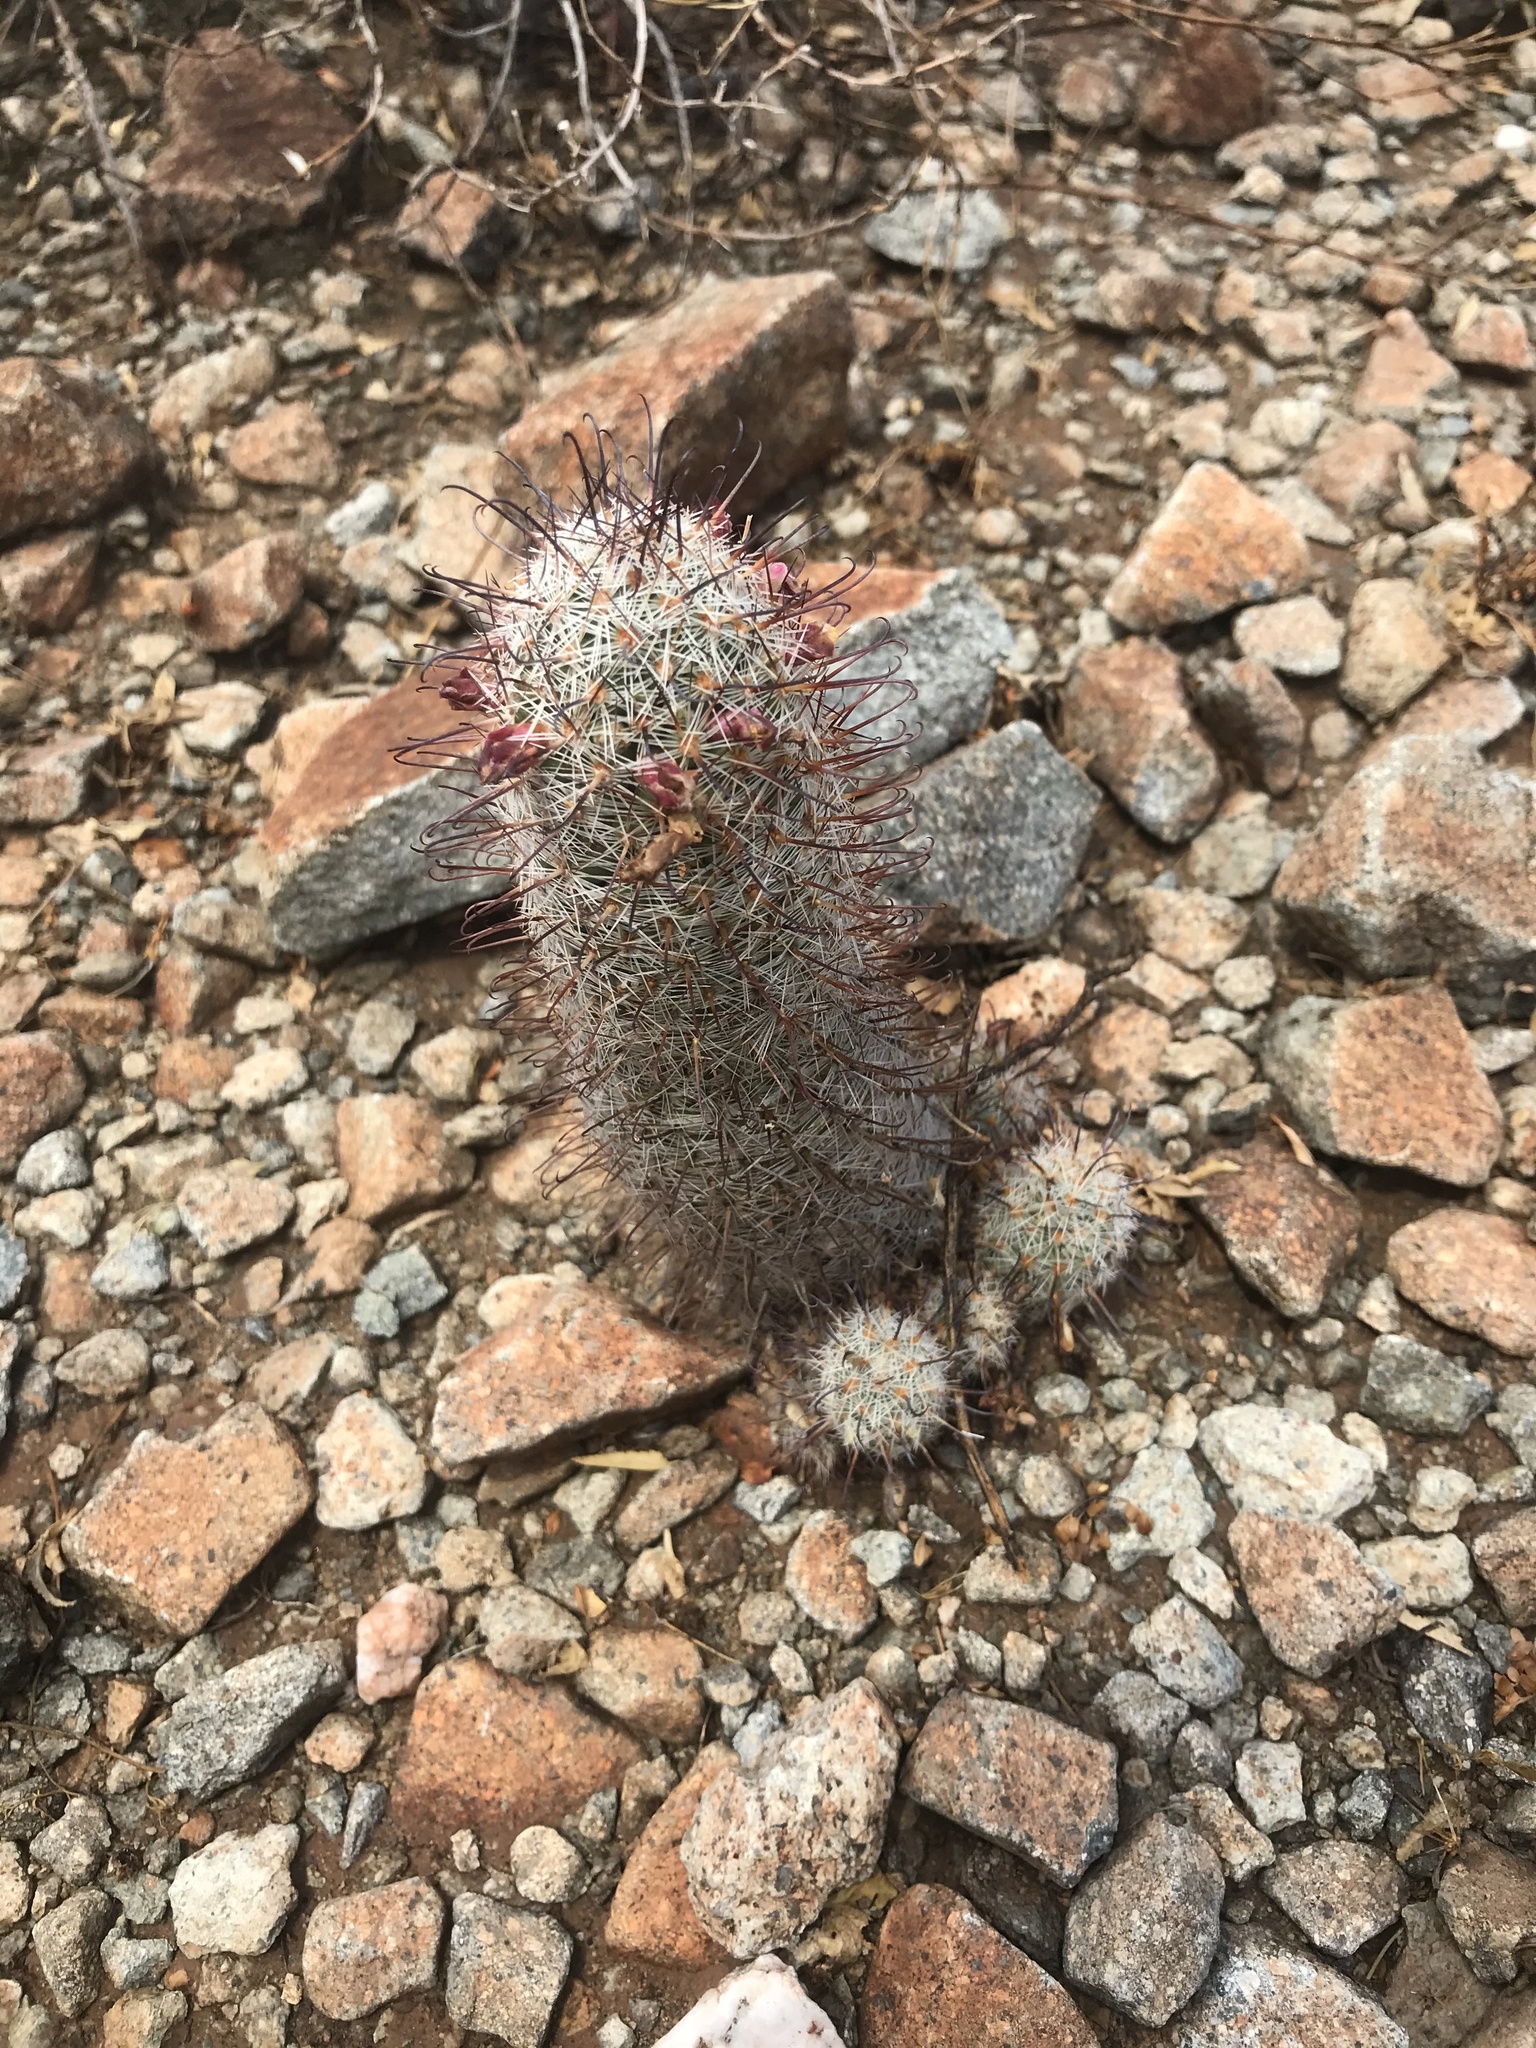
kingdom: Plantae
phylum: Tracheophyta
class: Magnoliopsida
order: Caryophyllales
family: Cactaceae
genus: Cochemiea
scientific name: Cochemiea grahamii
